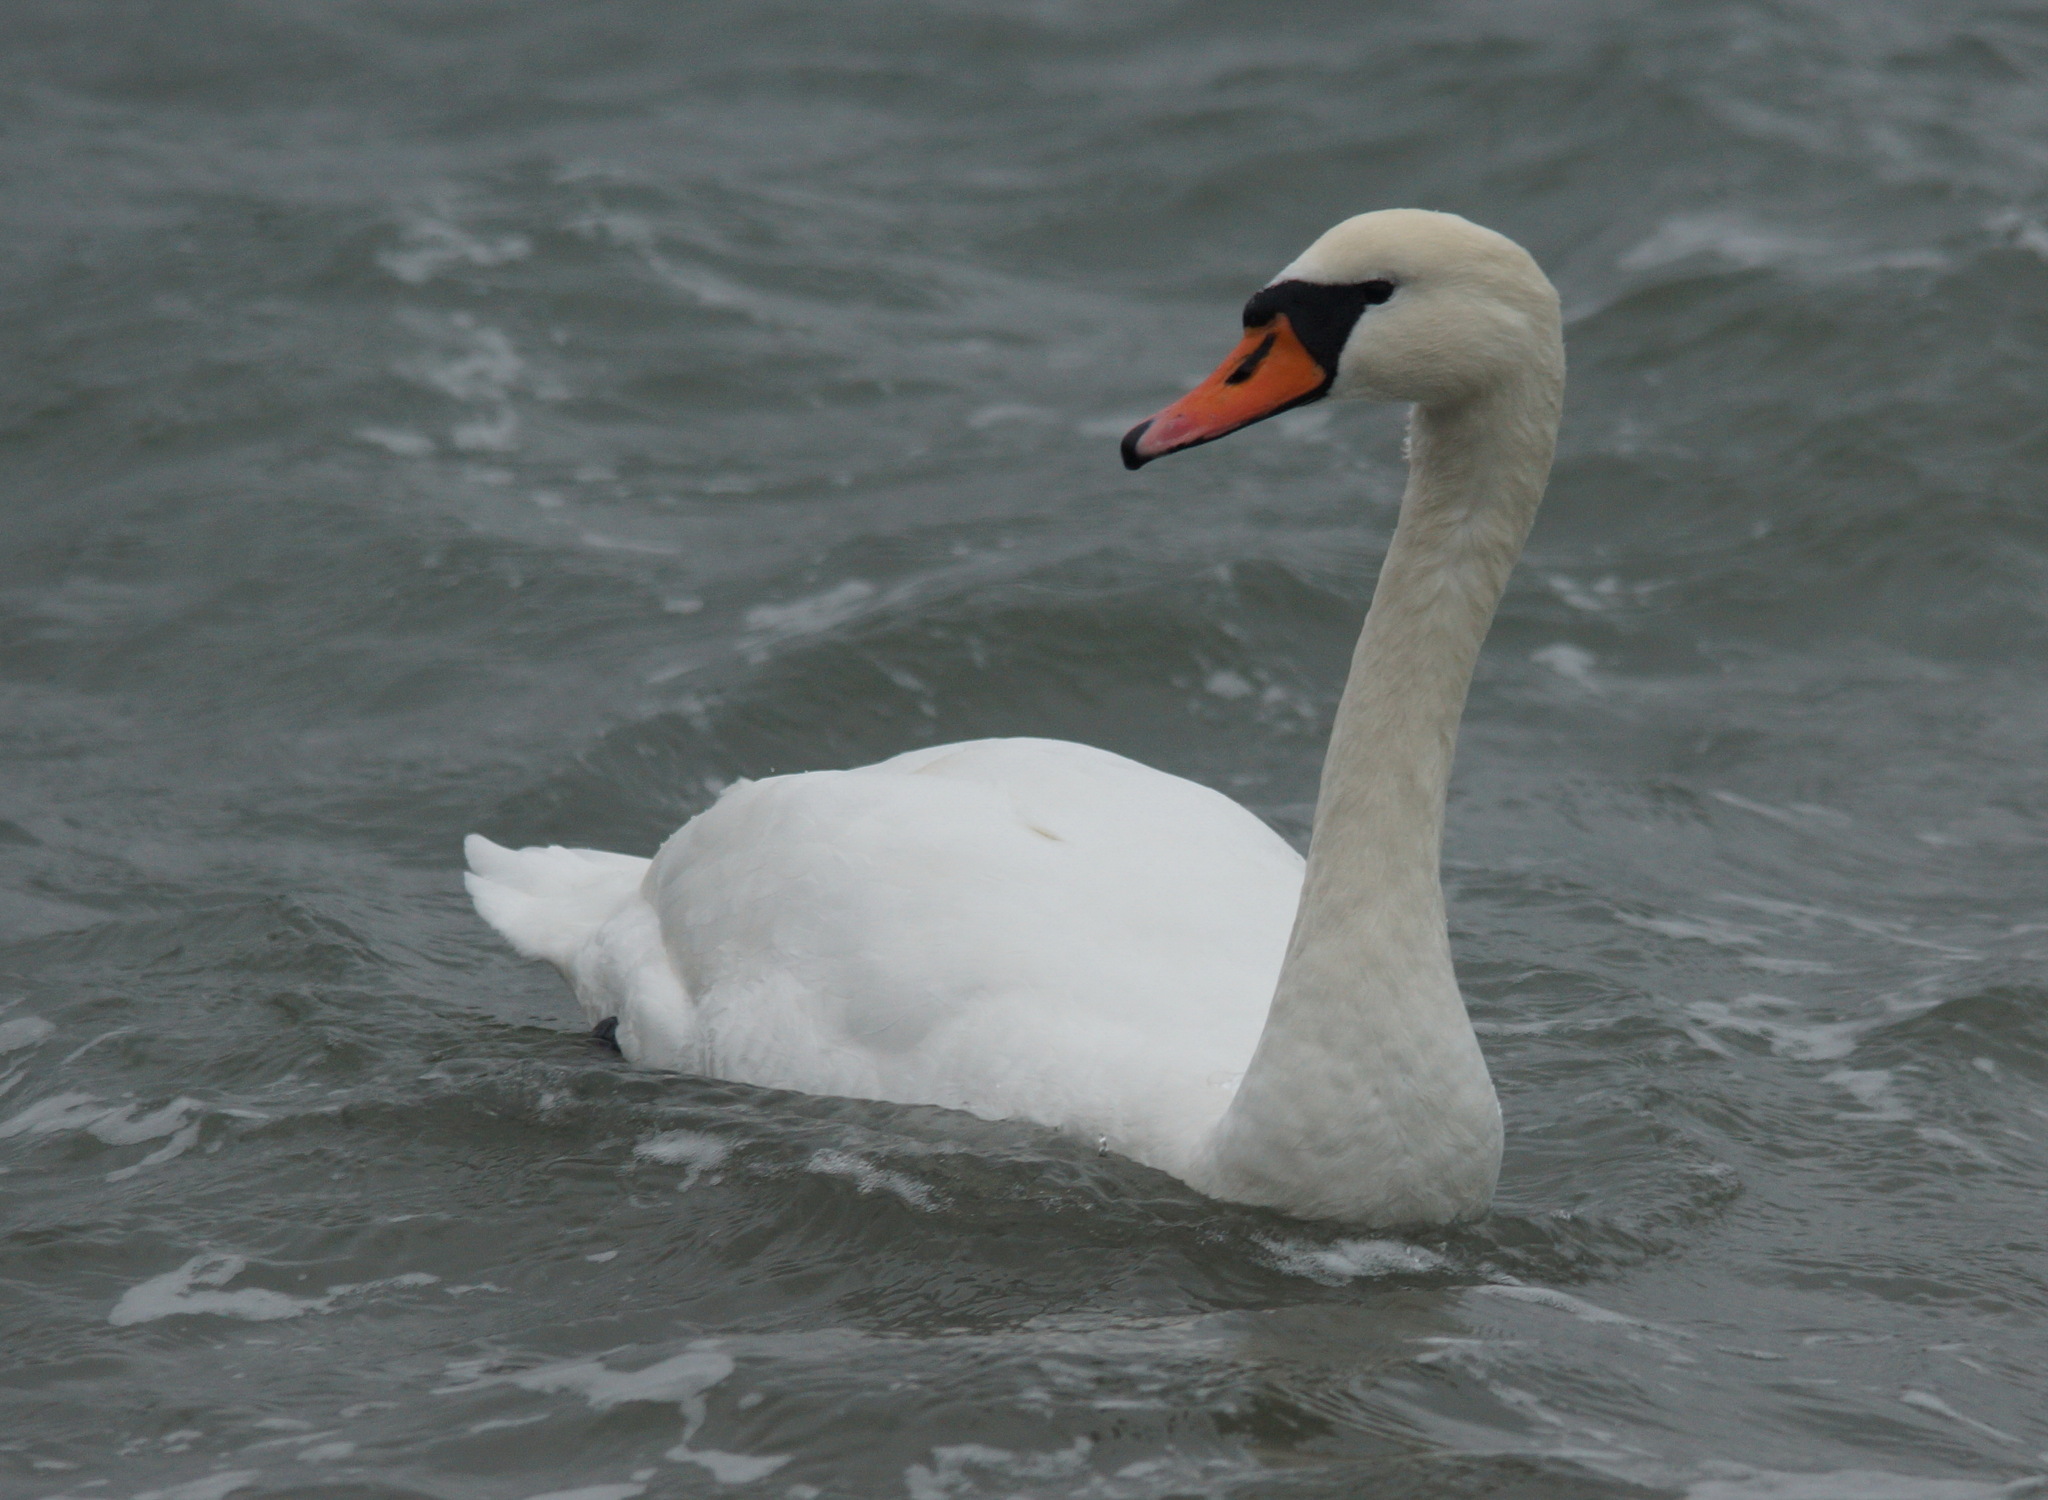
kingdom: Animalia
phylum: Chordata
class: Aves
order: Anseriformes
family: Anatidae
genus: Cygnus
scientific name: Cygnus olor
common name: Mute swan
